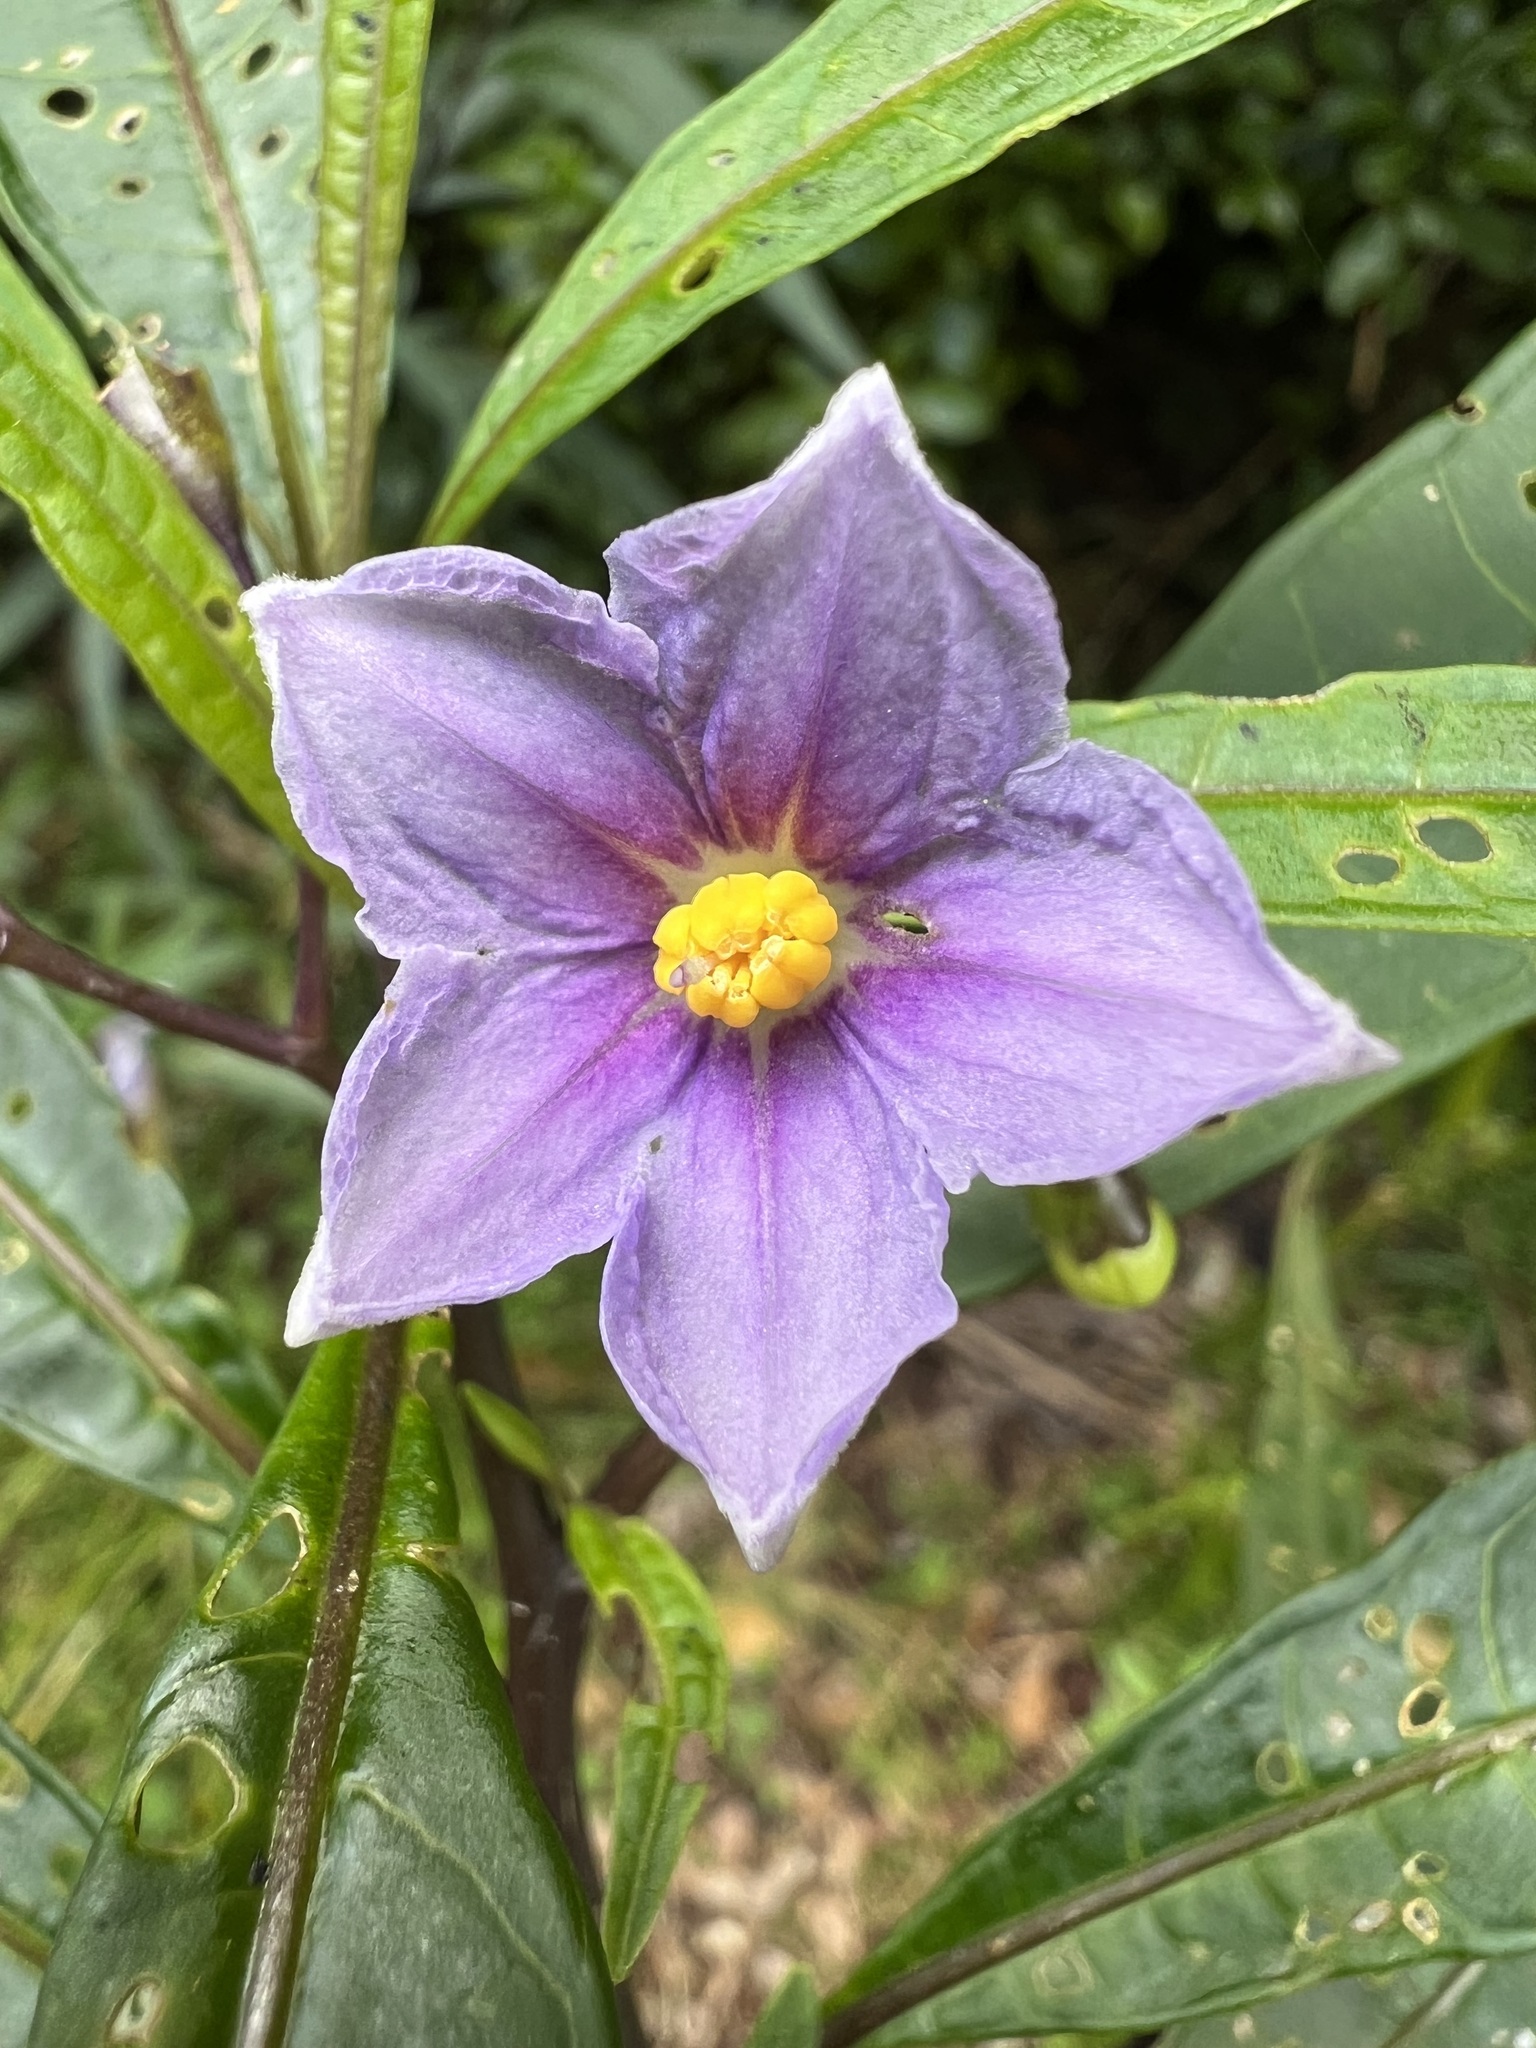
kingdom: Plantae
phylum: Tracheophyta
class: Magnoliopsida
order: Solanales
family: Solanaceae
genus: Solanum
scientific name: Solanum aviculare
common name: New zealand nightshade
